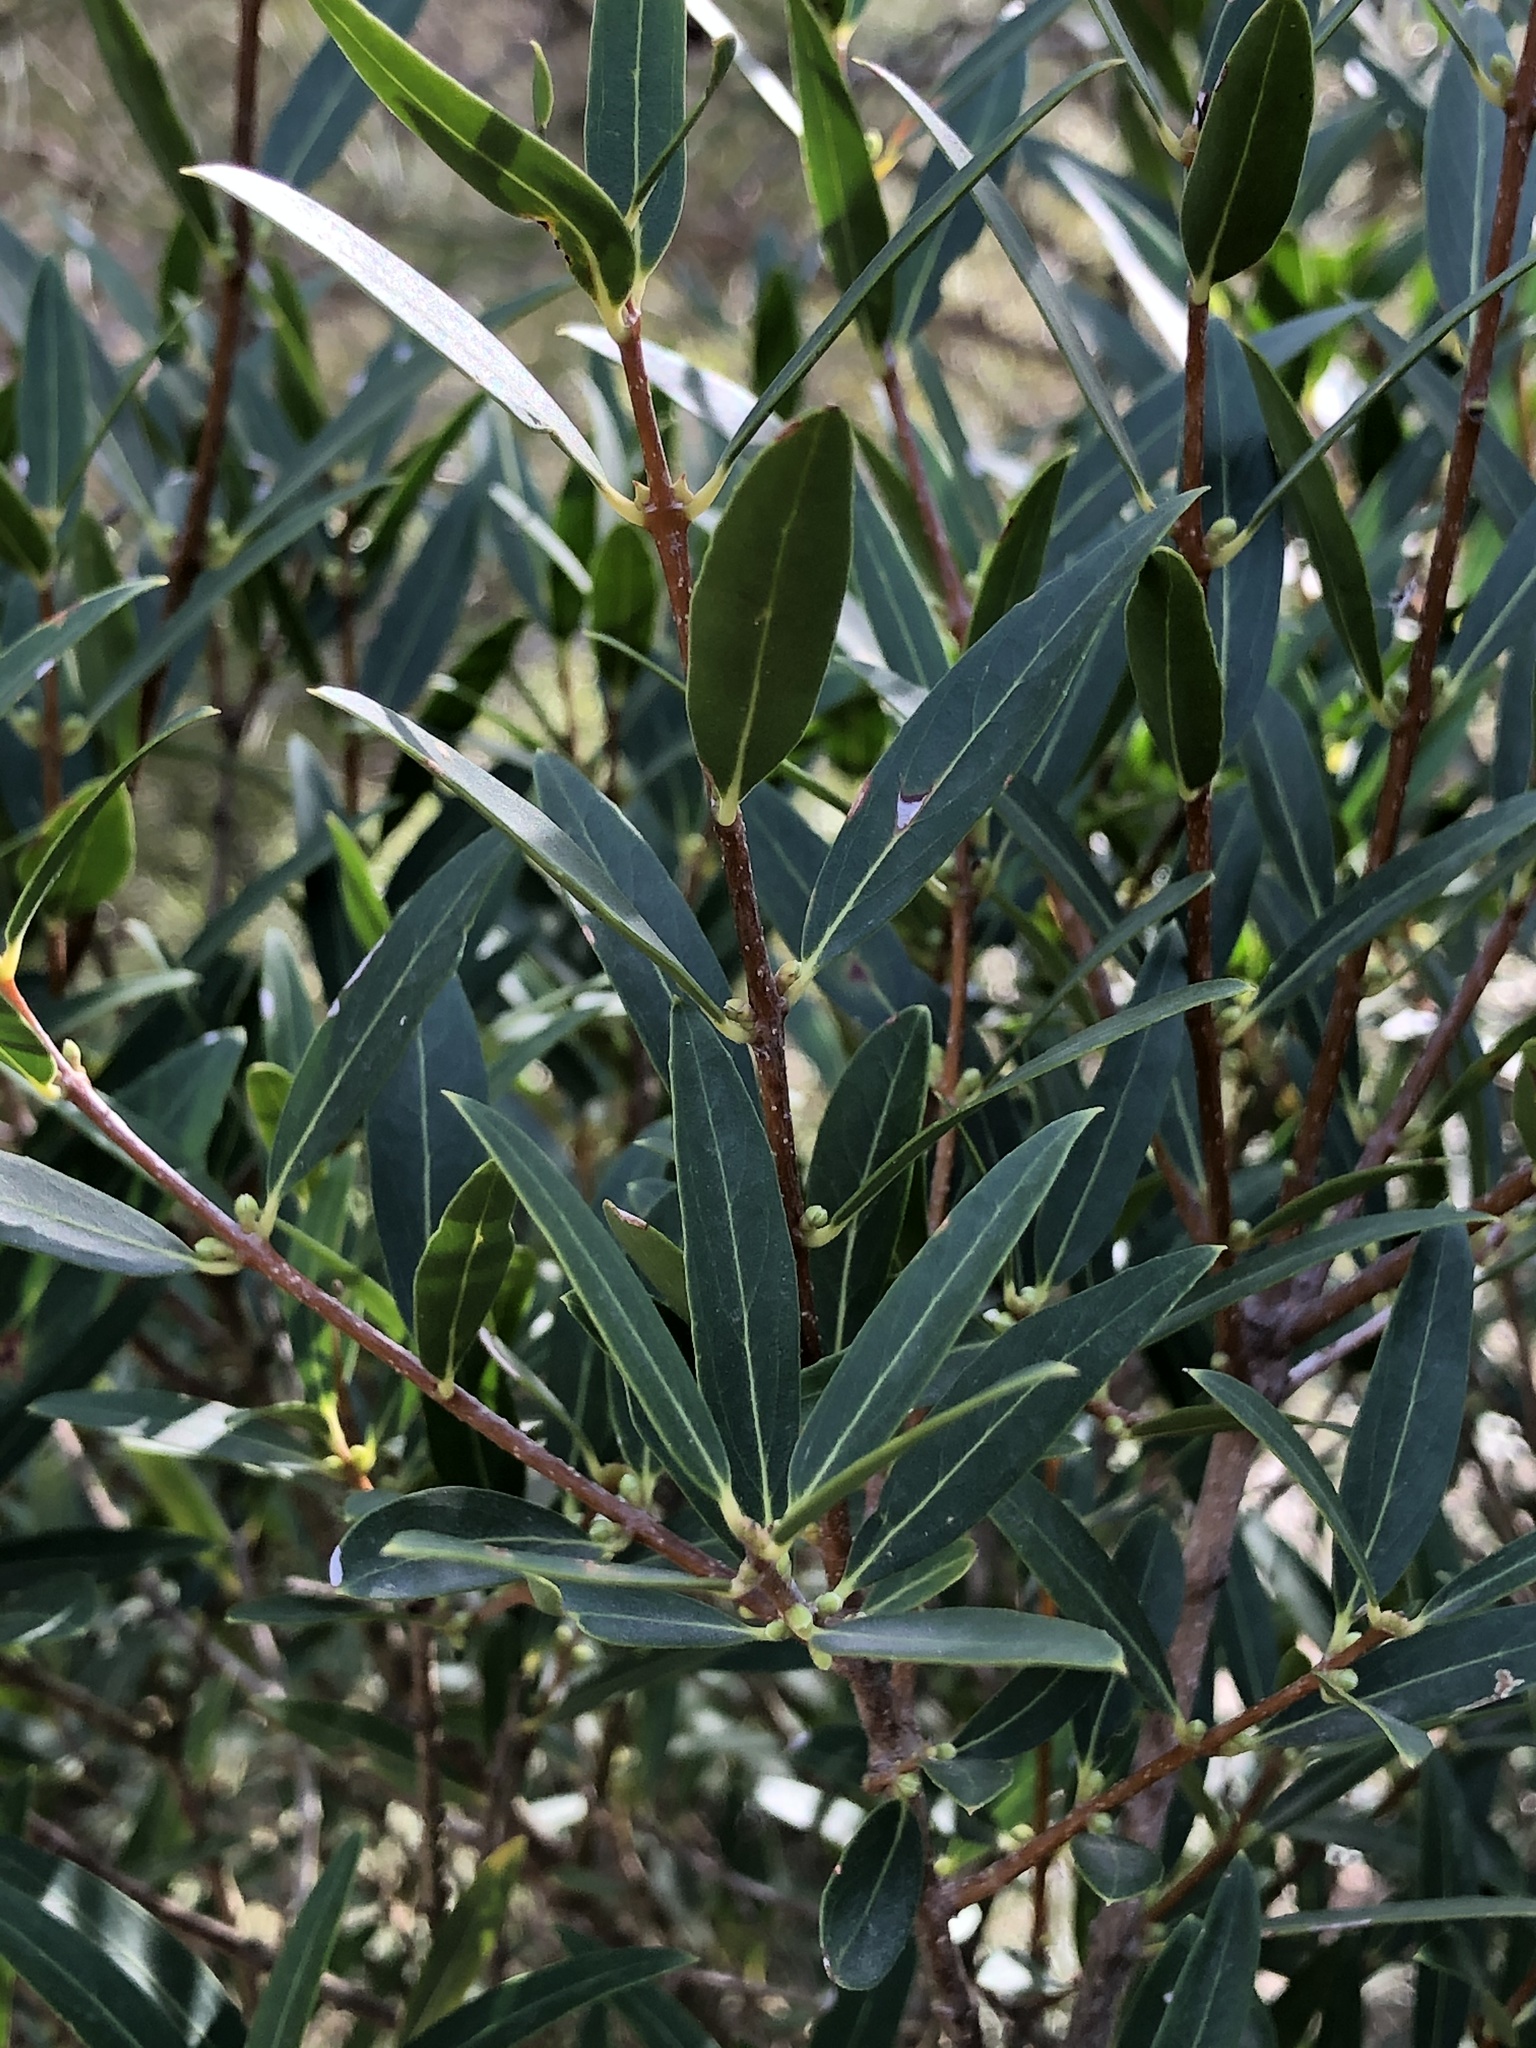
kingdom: Plantae
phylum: Tracheophyta
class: Magnoliopsida
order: Lamiales
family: Oleaceae
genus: Phillyrea
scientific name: Phillyrea angustifolia
